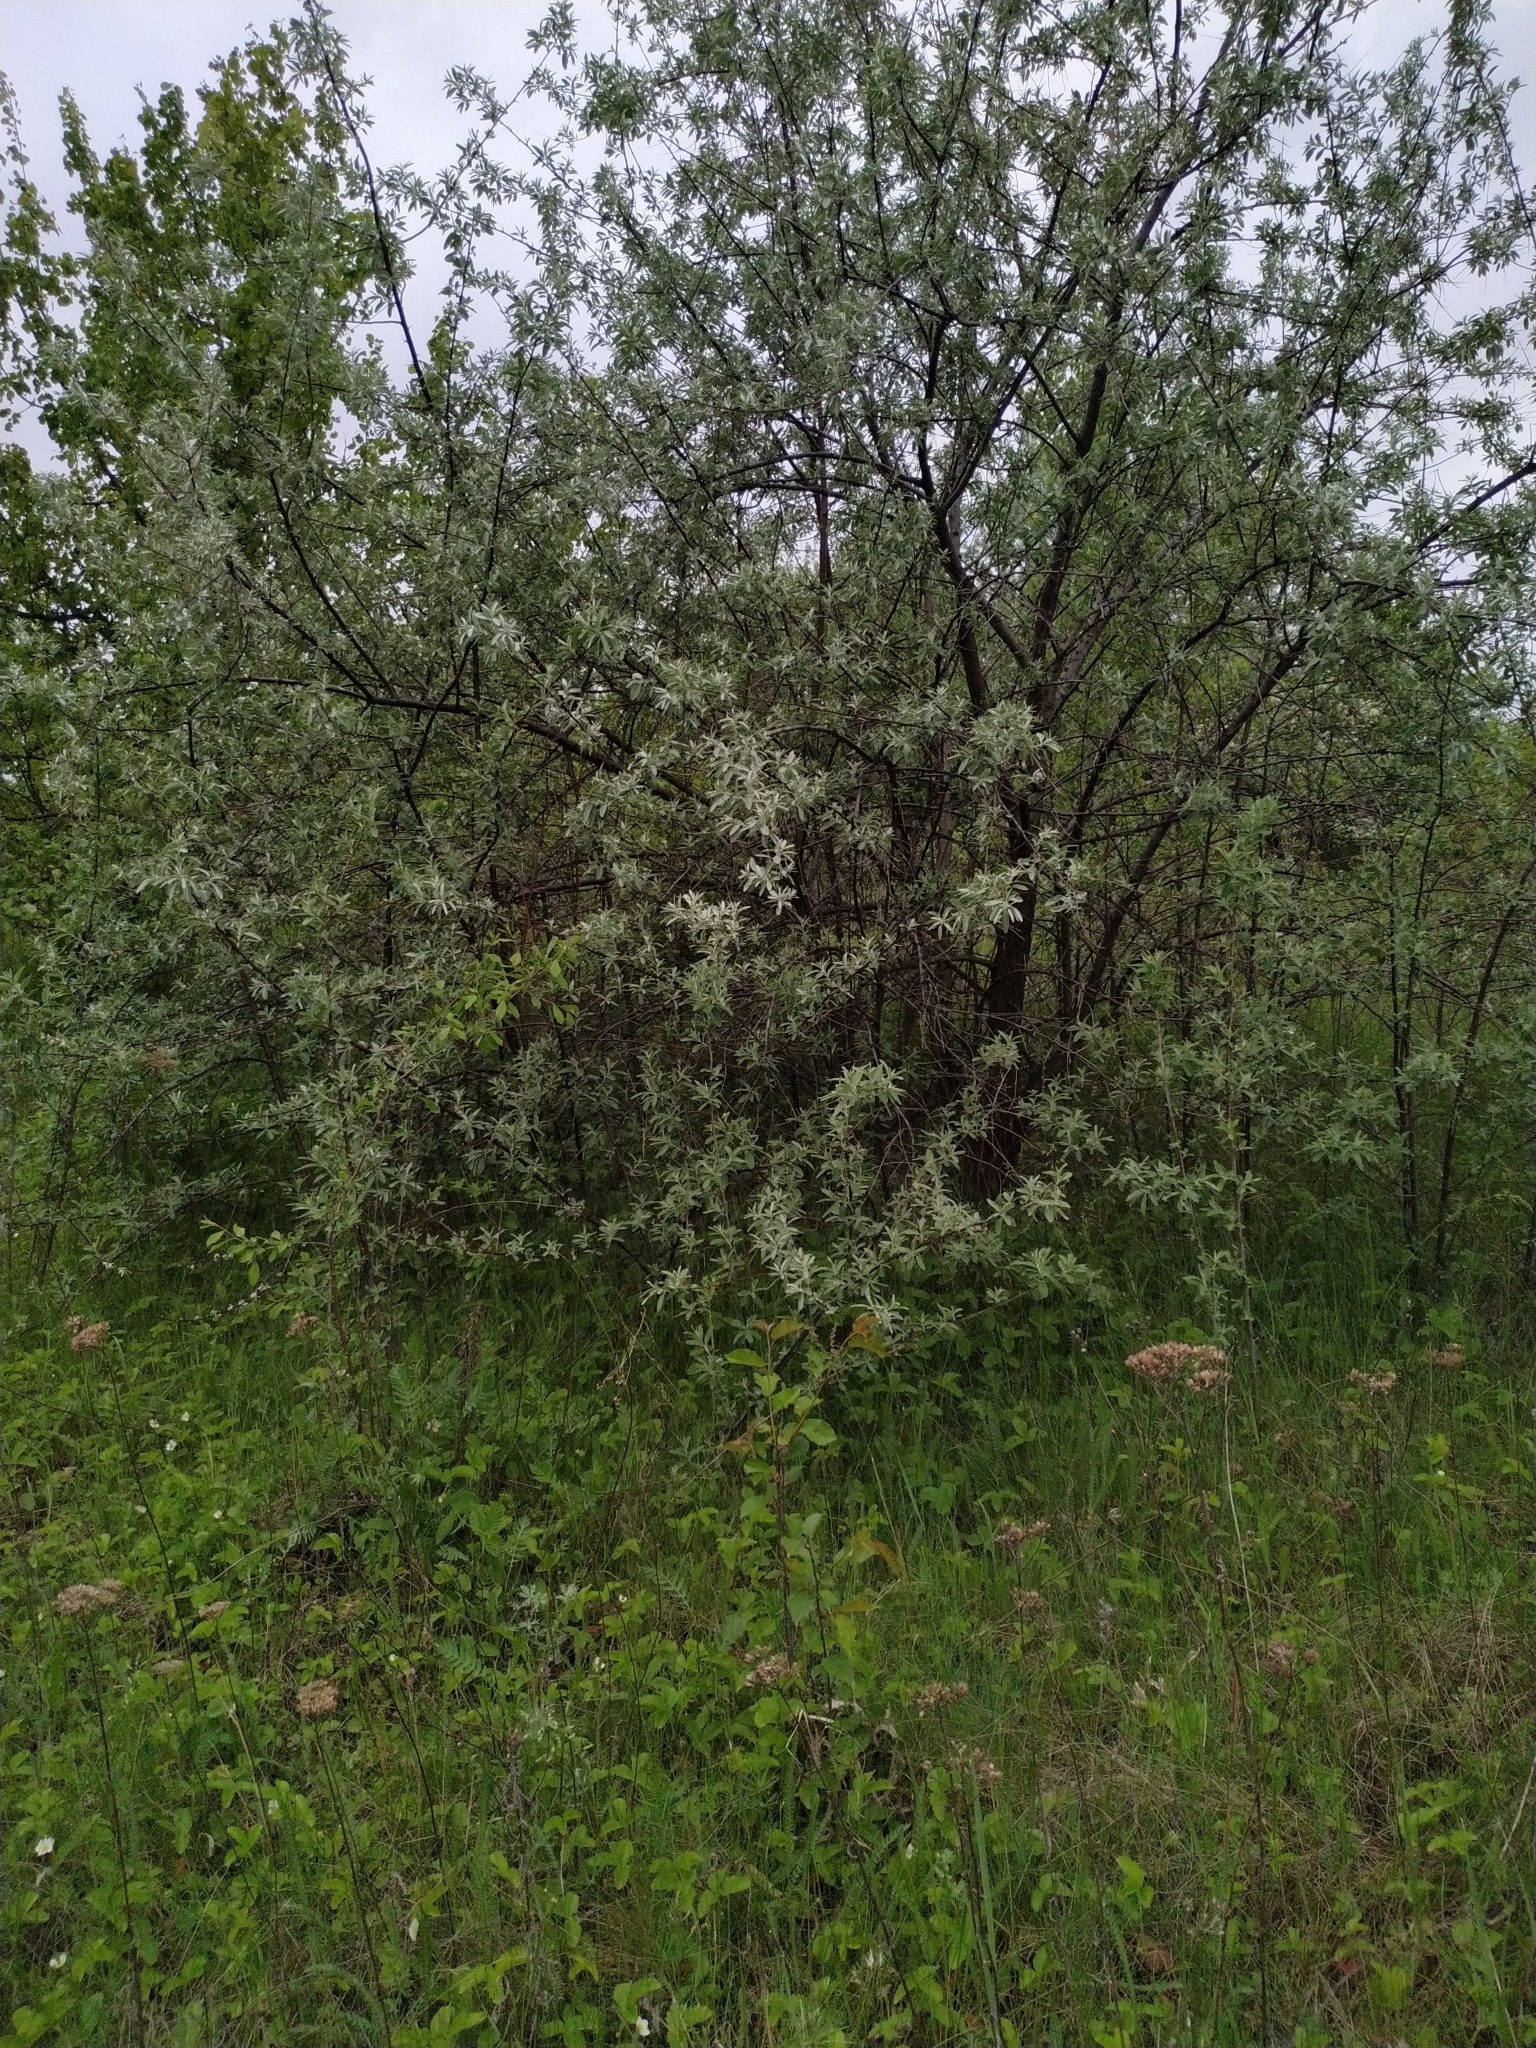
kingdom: Plantae
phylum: Tracheophyta
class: Magnoliopsida
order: Rosales
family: Elaeagnaceae
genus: Elaeagnus
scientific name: Elaeagnus angustifolia
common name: Russian olive
